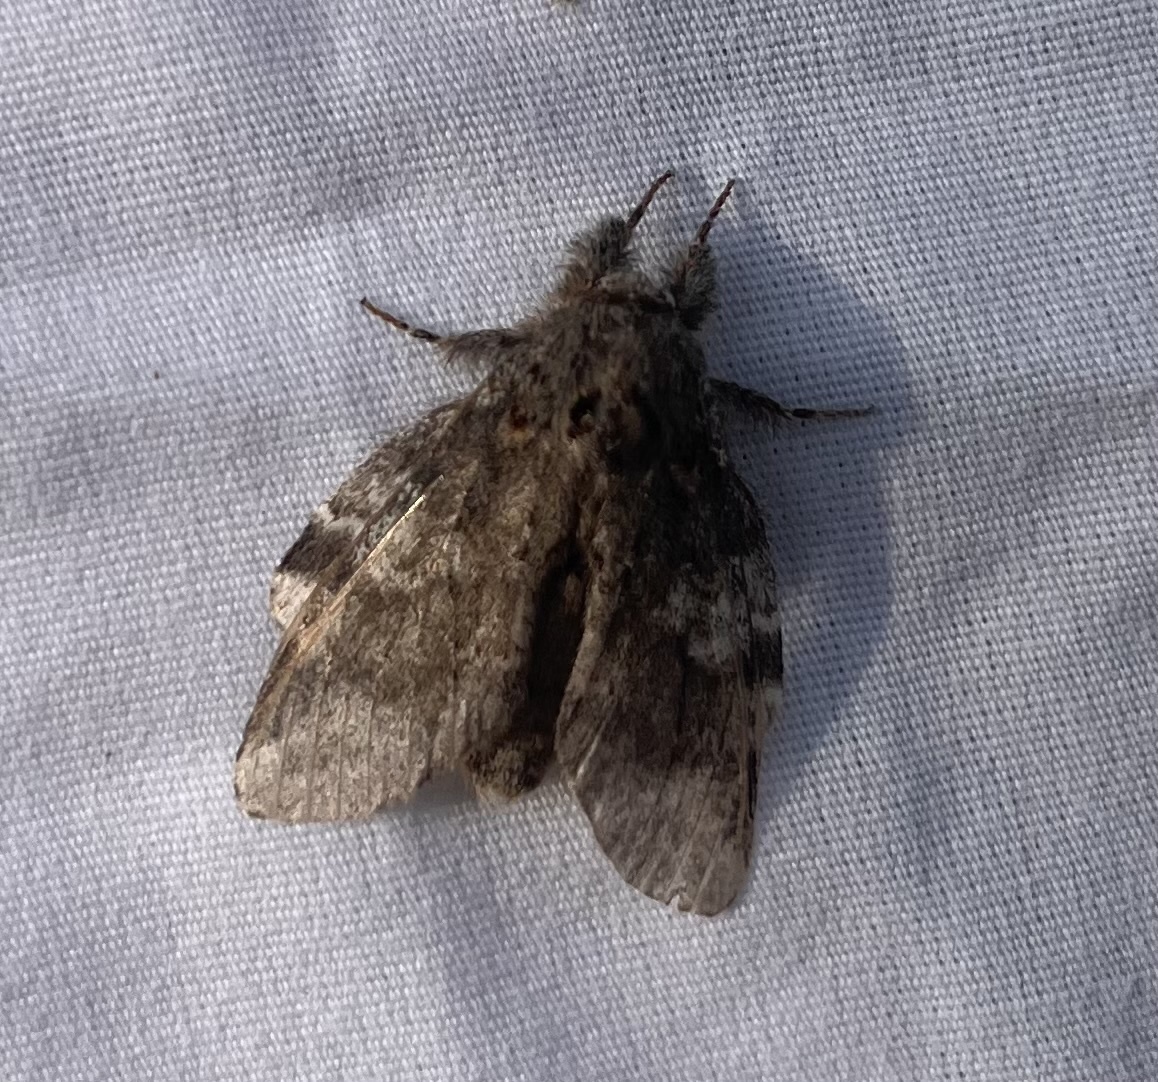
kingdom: Animalia
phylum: Arthropoda
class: Insecta
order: Lepidoptera
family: Notodontidae
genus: Peridea
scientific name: Peridea angulosa
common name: Angulose prominent
